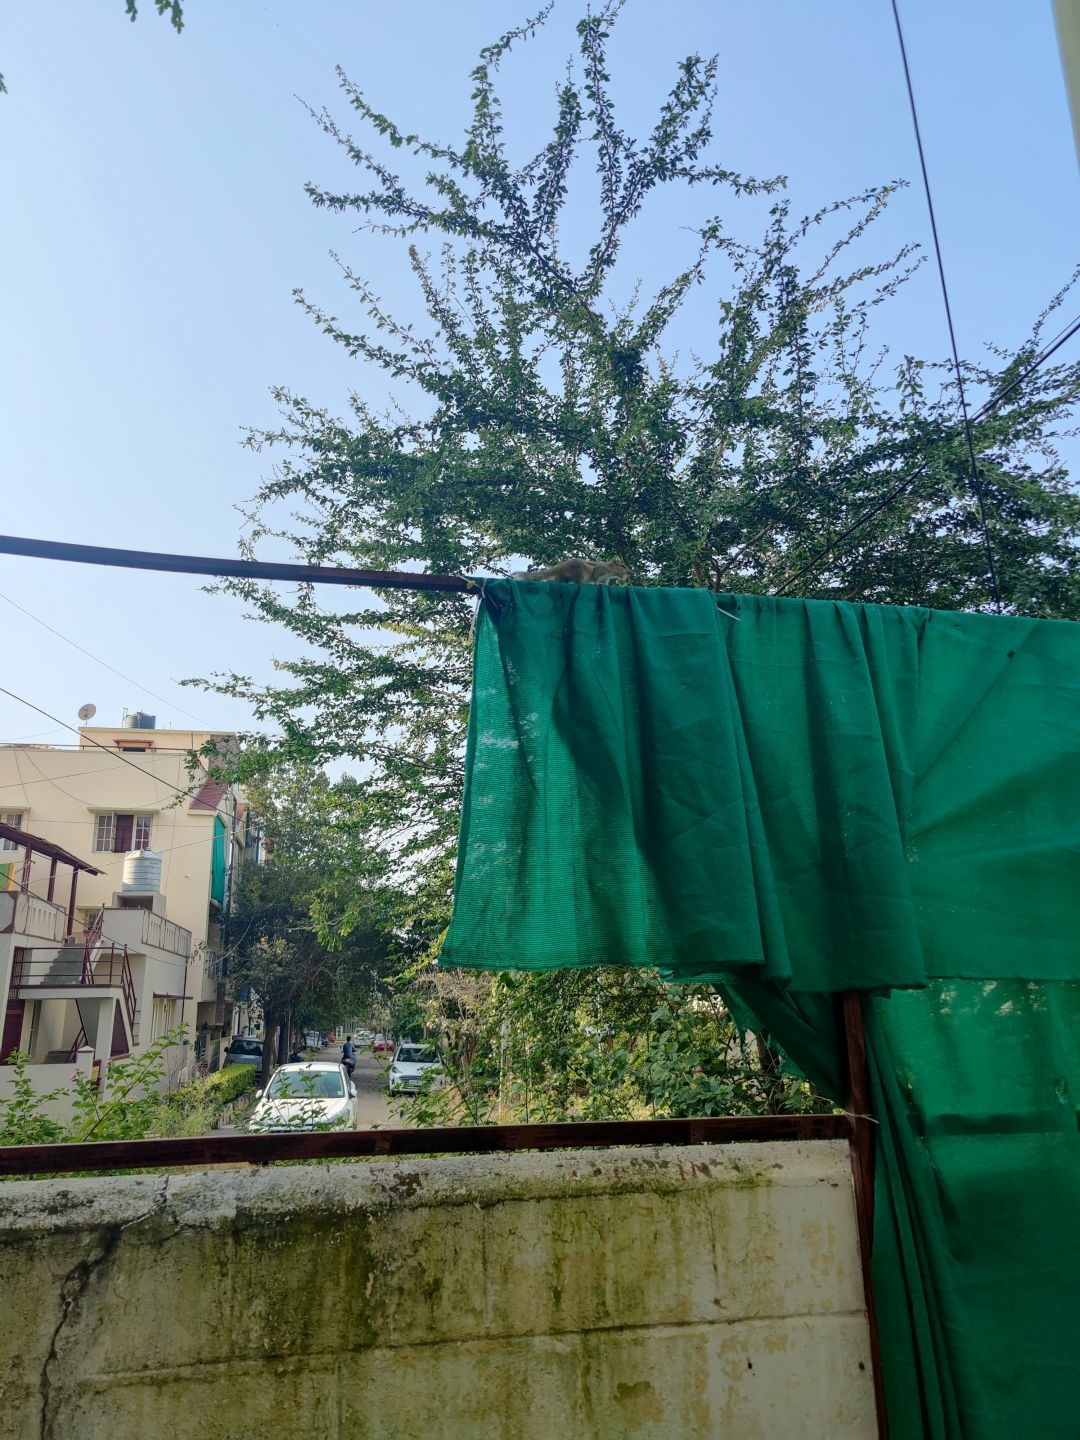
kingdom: Animalia
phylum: Chordata
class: Mammalia
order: Rodentia
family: Sciuridae
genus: Funambulus
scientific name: Funambulus palmarum
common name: Indian palm squirrel
